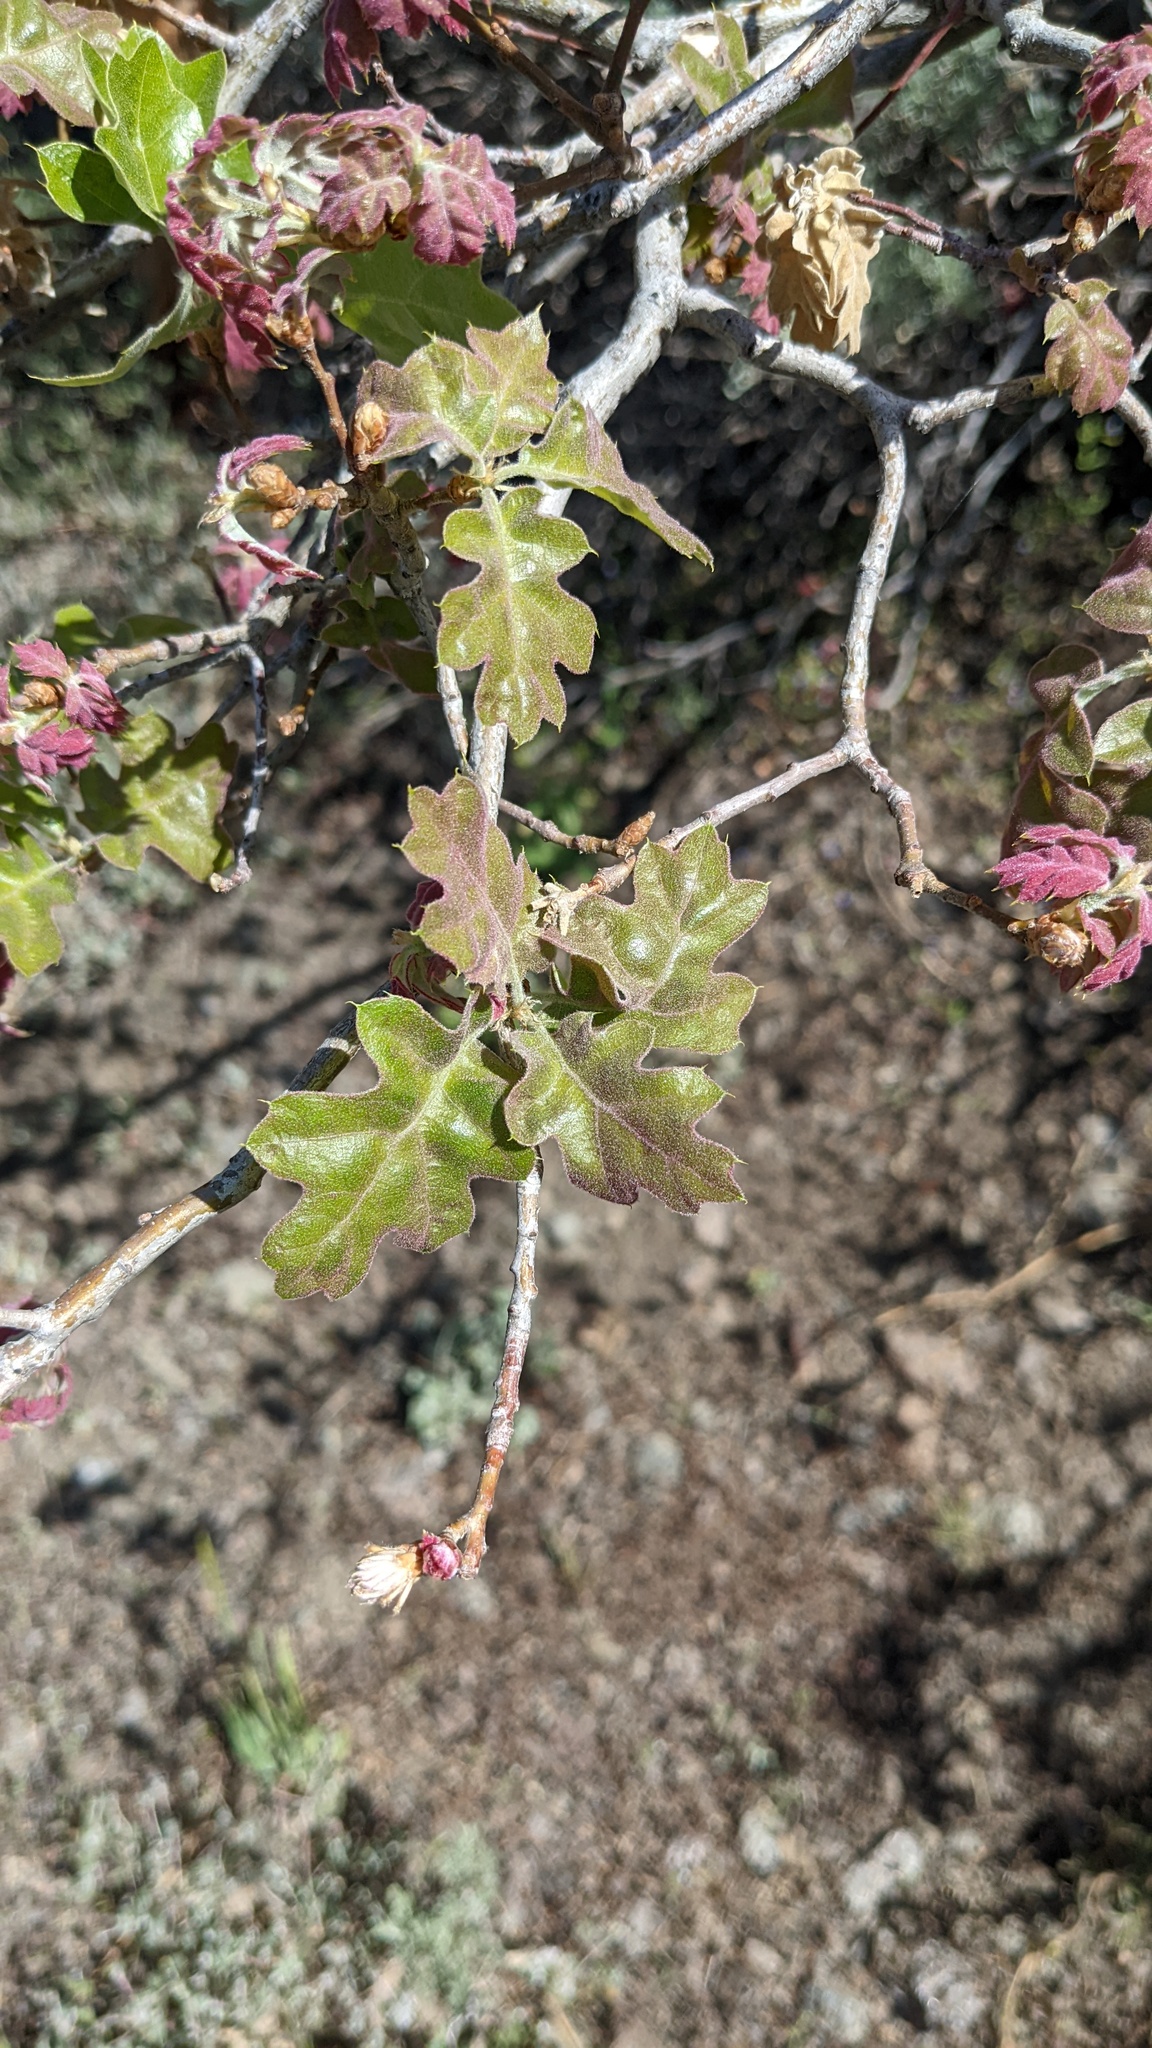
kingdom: Plantae
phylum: Tracheophyta
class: Magnoliopsida
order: Fagales
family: Fagaceae
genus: Quercus
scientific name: Quercus kelloggii
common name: California black oak
